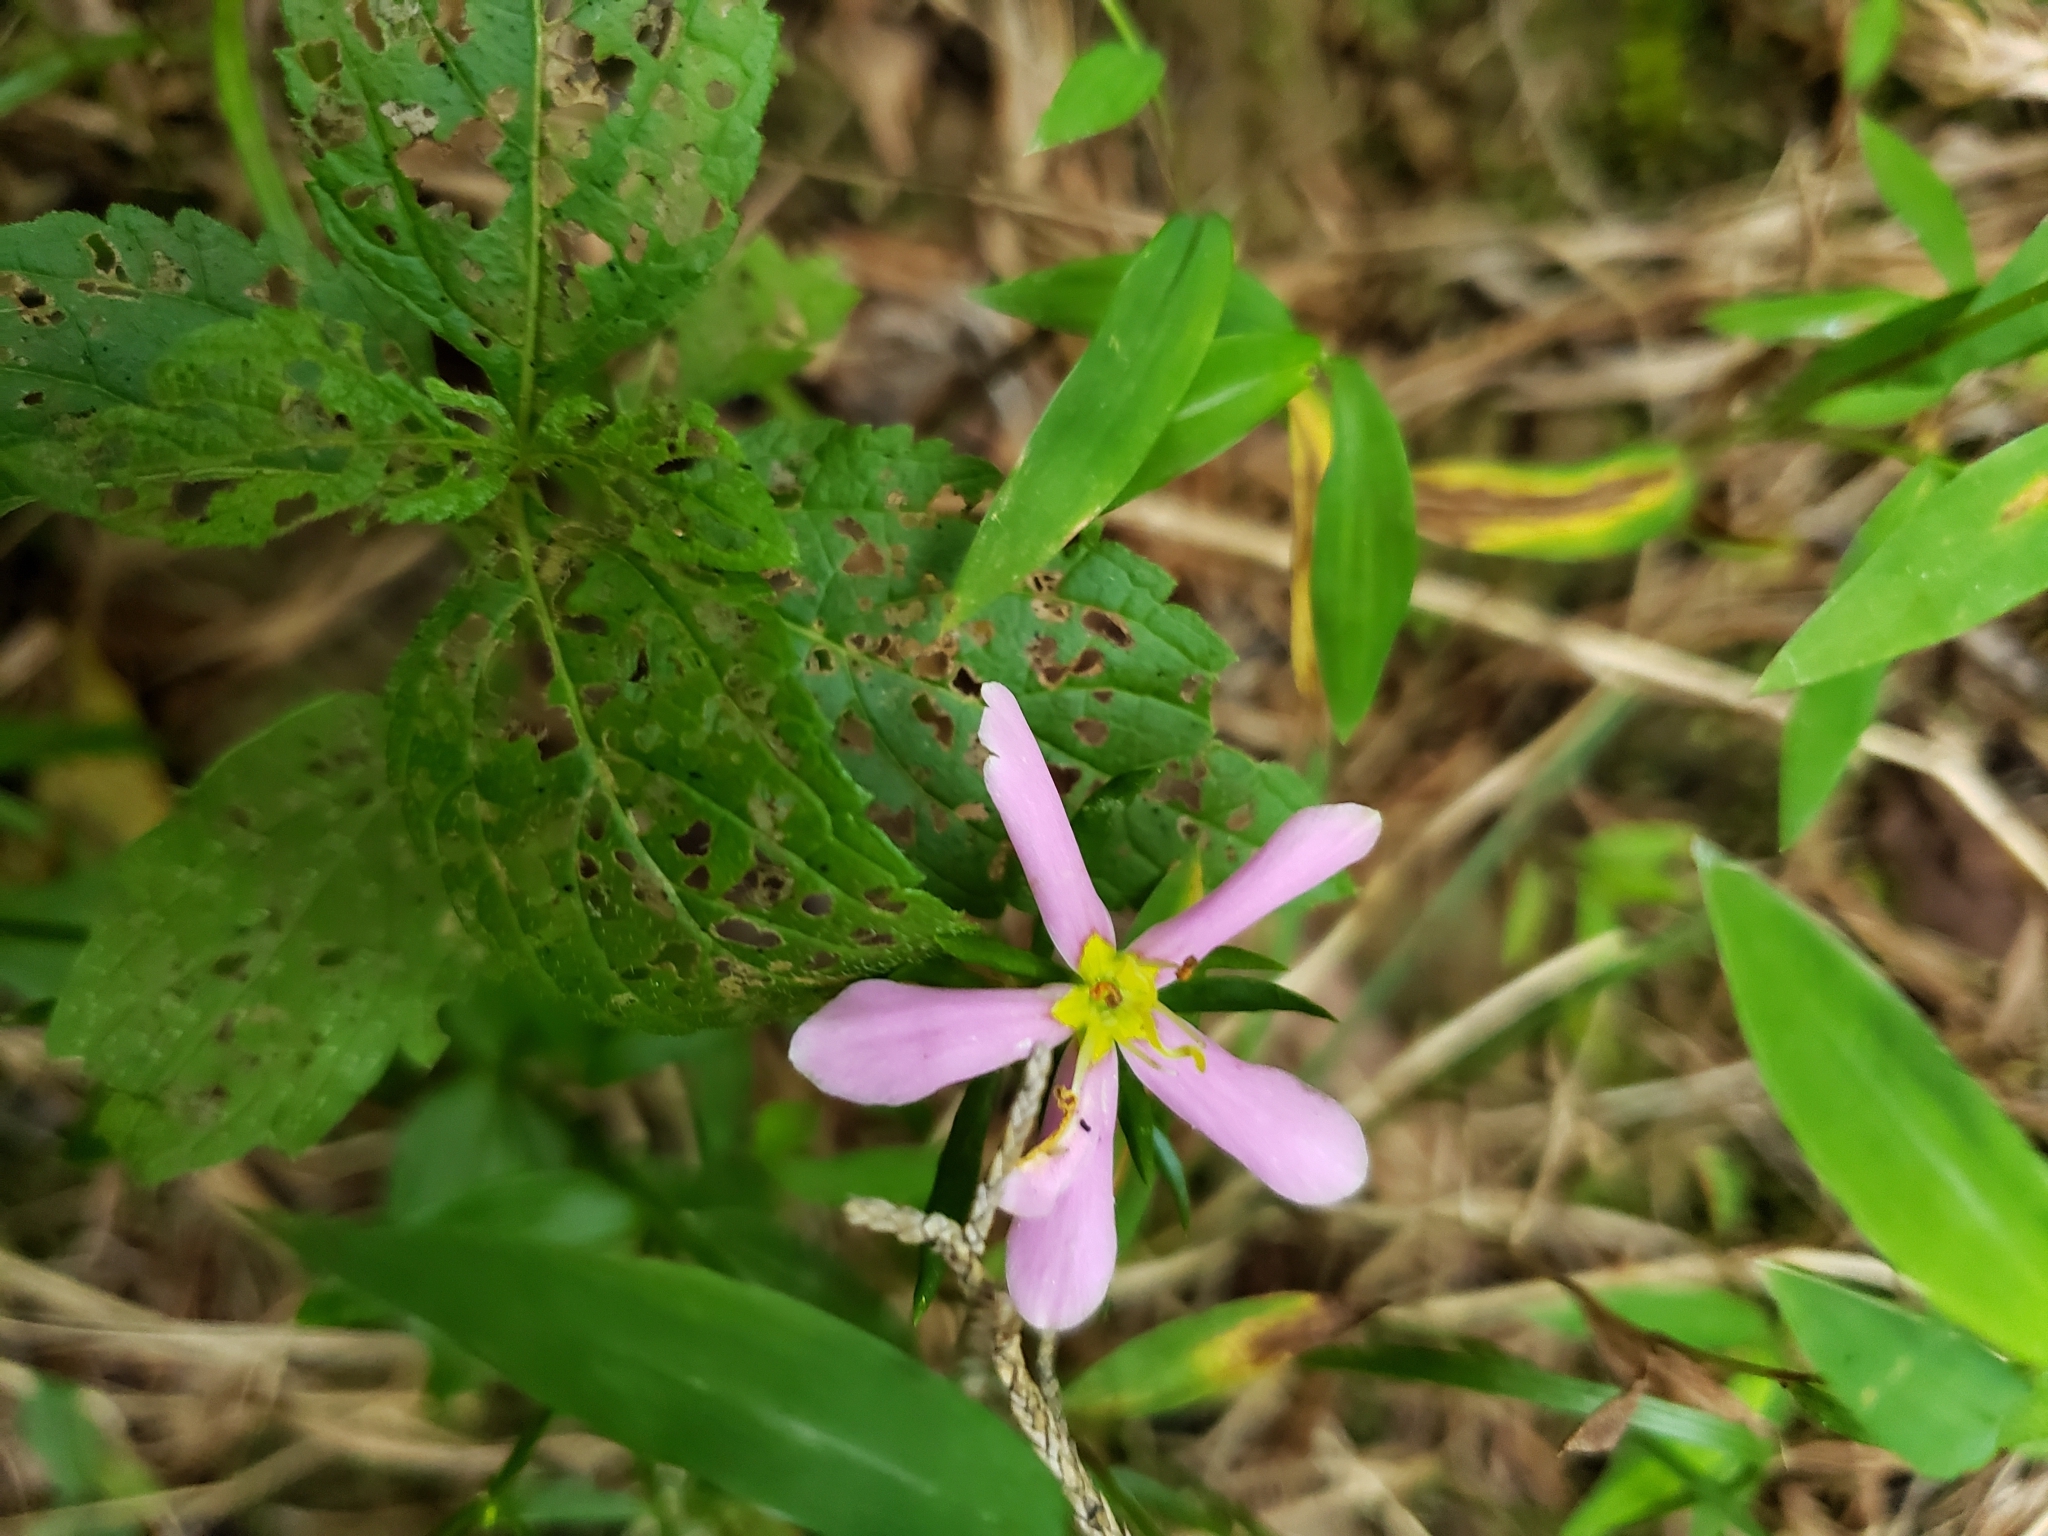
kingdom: Plantae
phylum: Tracheophyta
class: Magnoliopsida
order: Gentianales
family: Gentianaceae
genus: Sabatia
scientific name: Sabatia angularis
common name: Rose-pink
